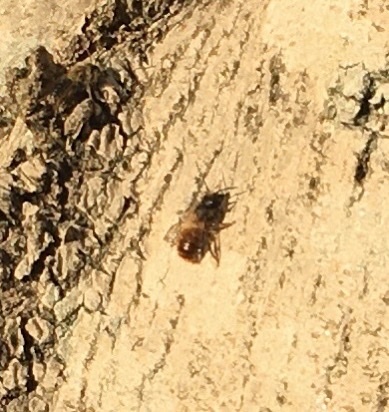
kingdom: Animalia
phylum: Arthropoda
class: Insecta
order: Hymenoptera
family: Megachilidae
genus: Osmia
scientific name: Osmia bicornis
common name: Red mason bee
